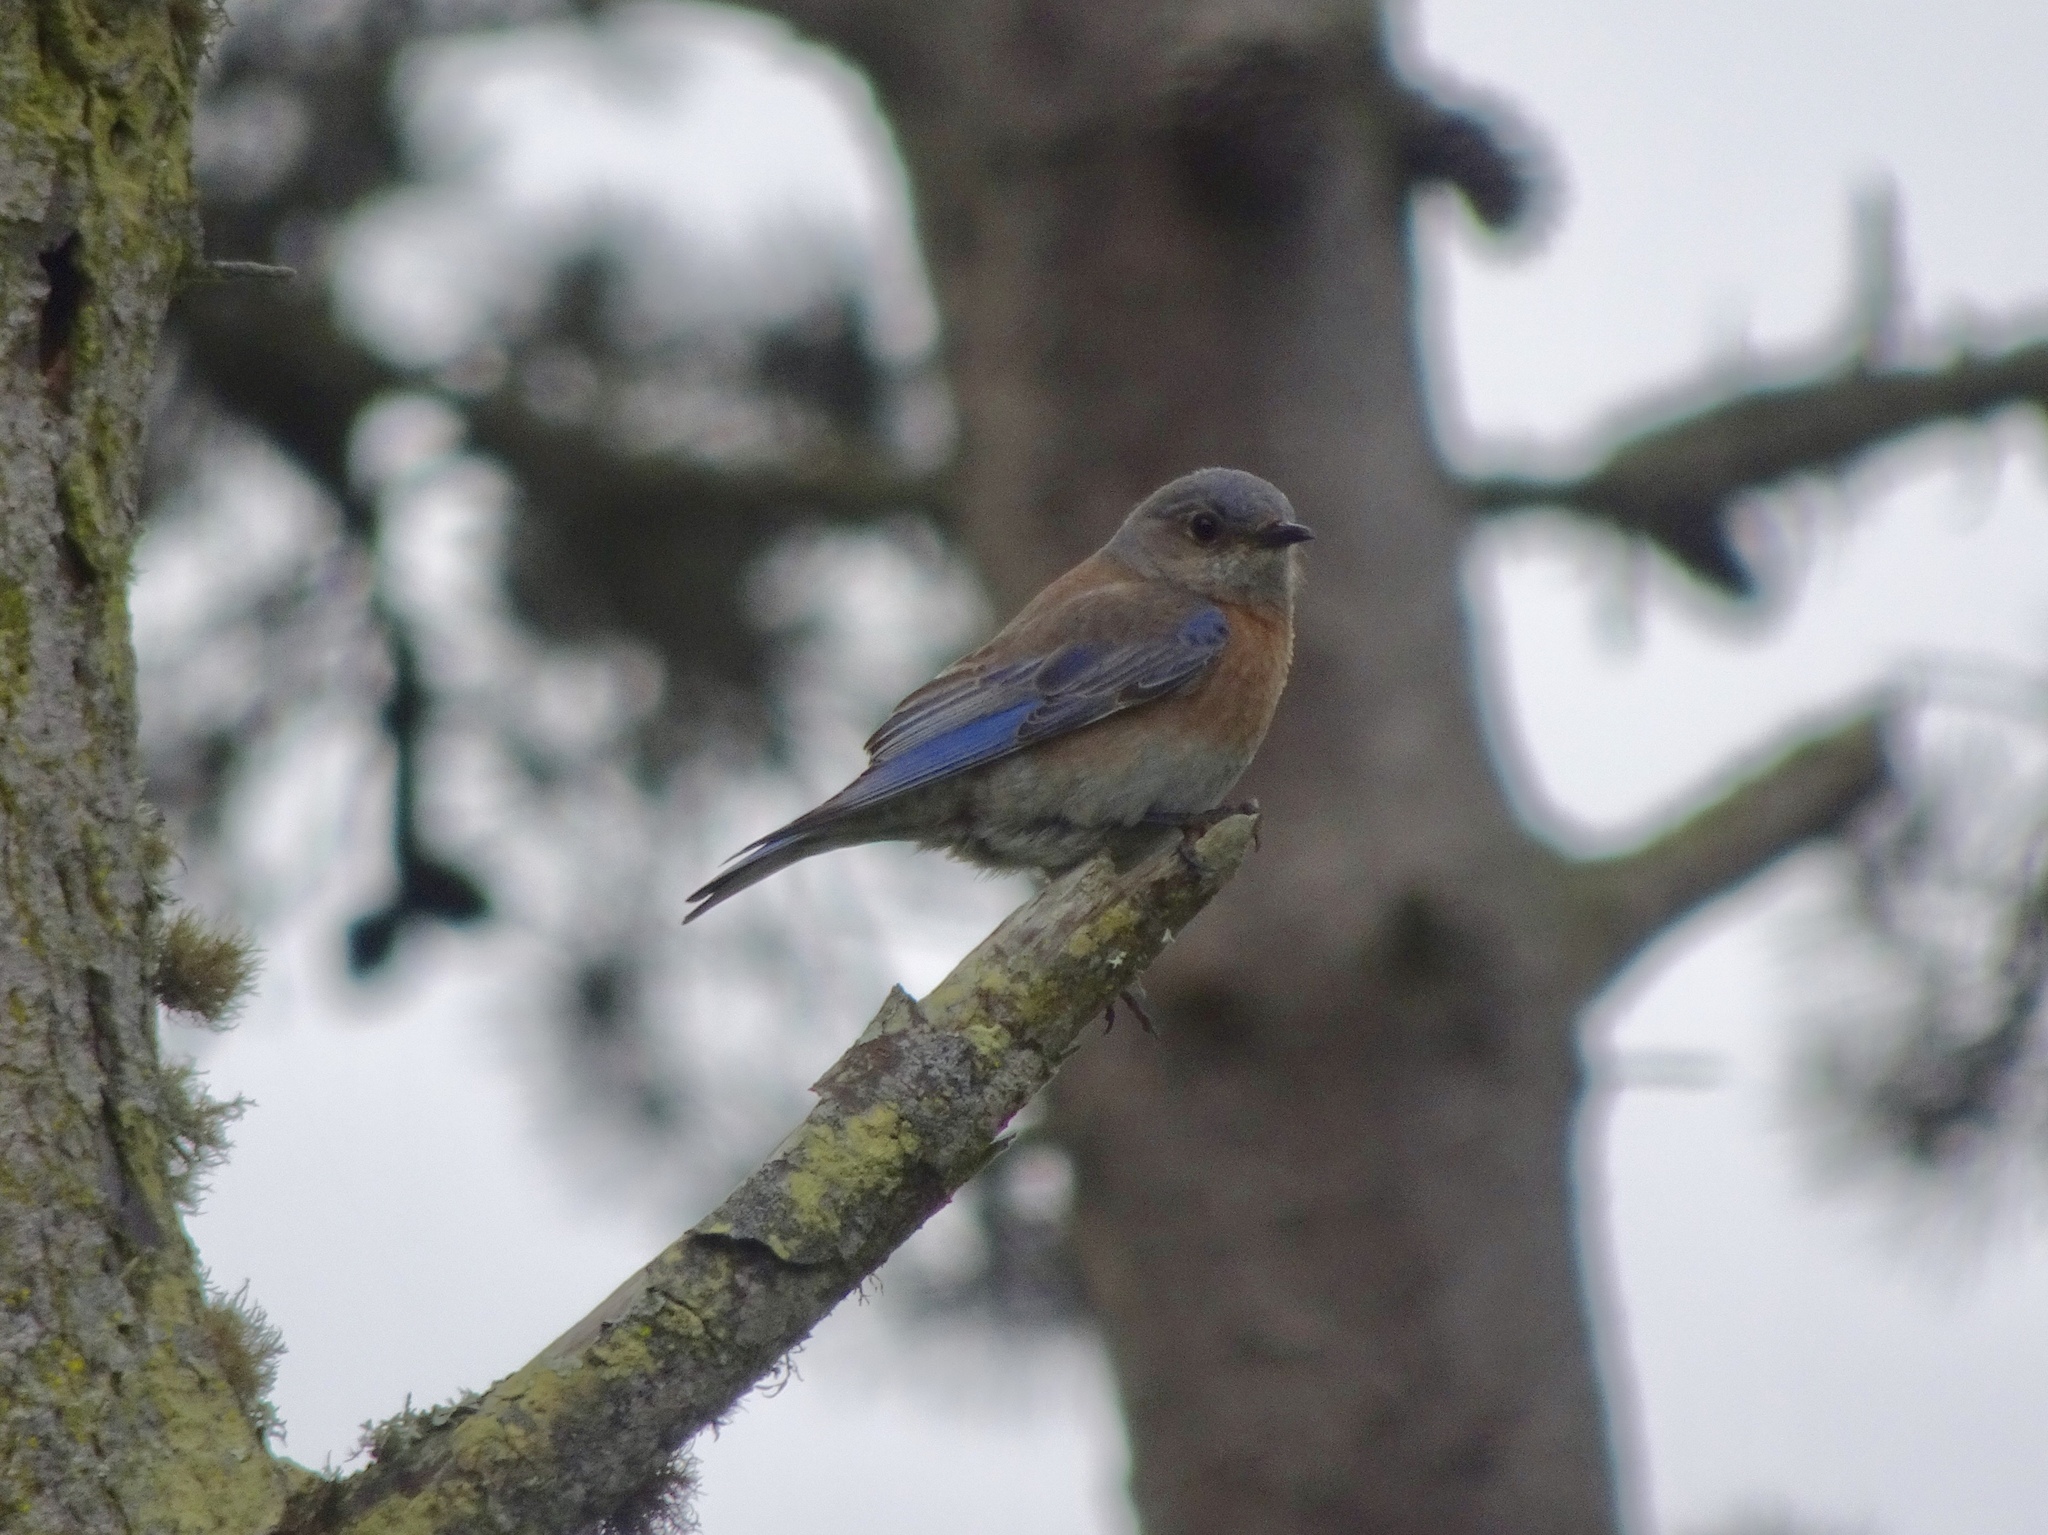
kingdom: Animalia
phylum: Chordata
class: Aves
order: Passeriformes
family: Turdidae
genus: Sialia
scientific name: Sialia mexicana
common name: Western bluebird
